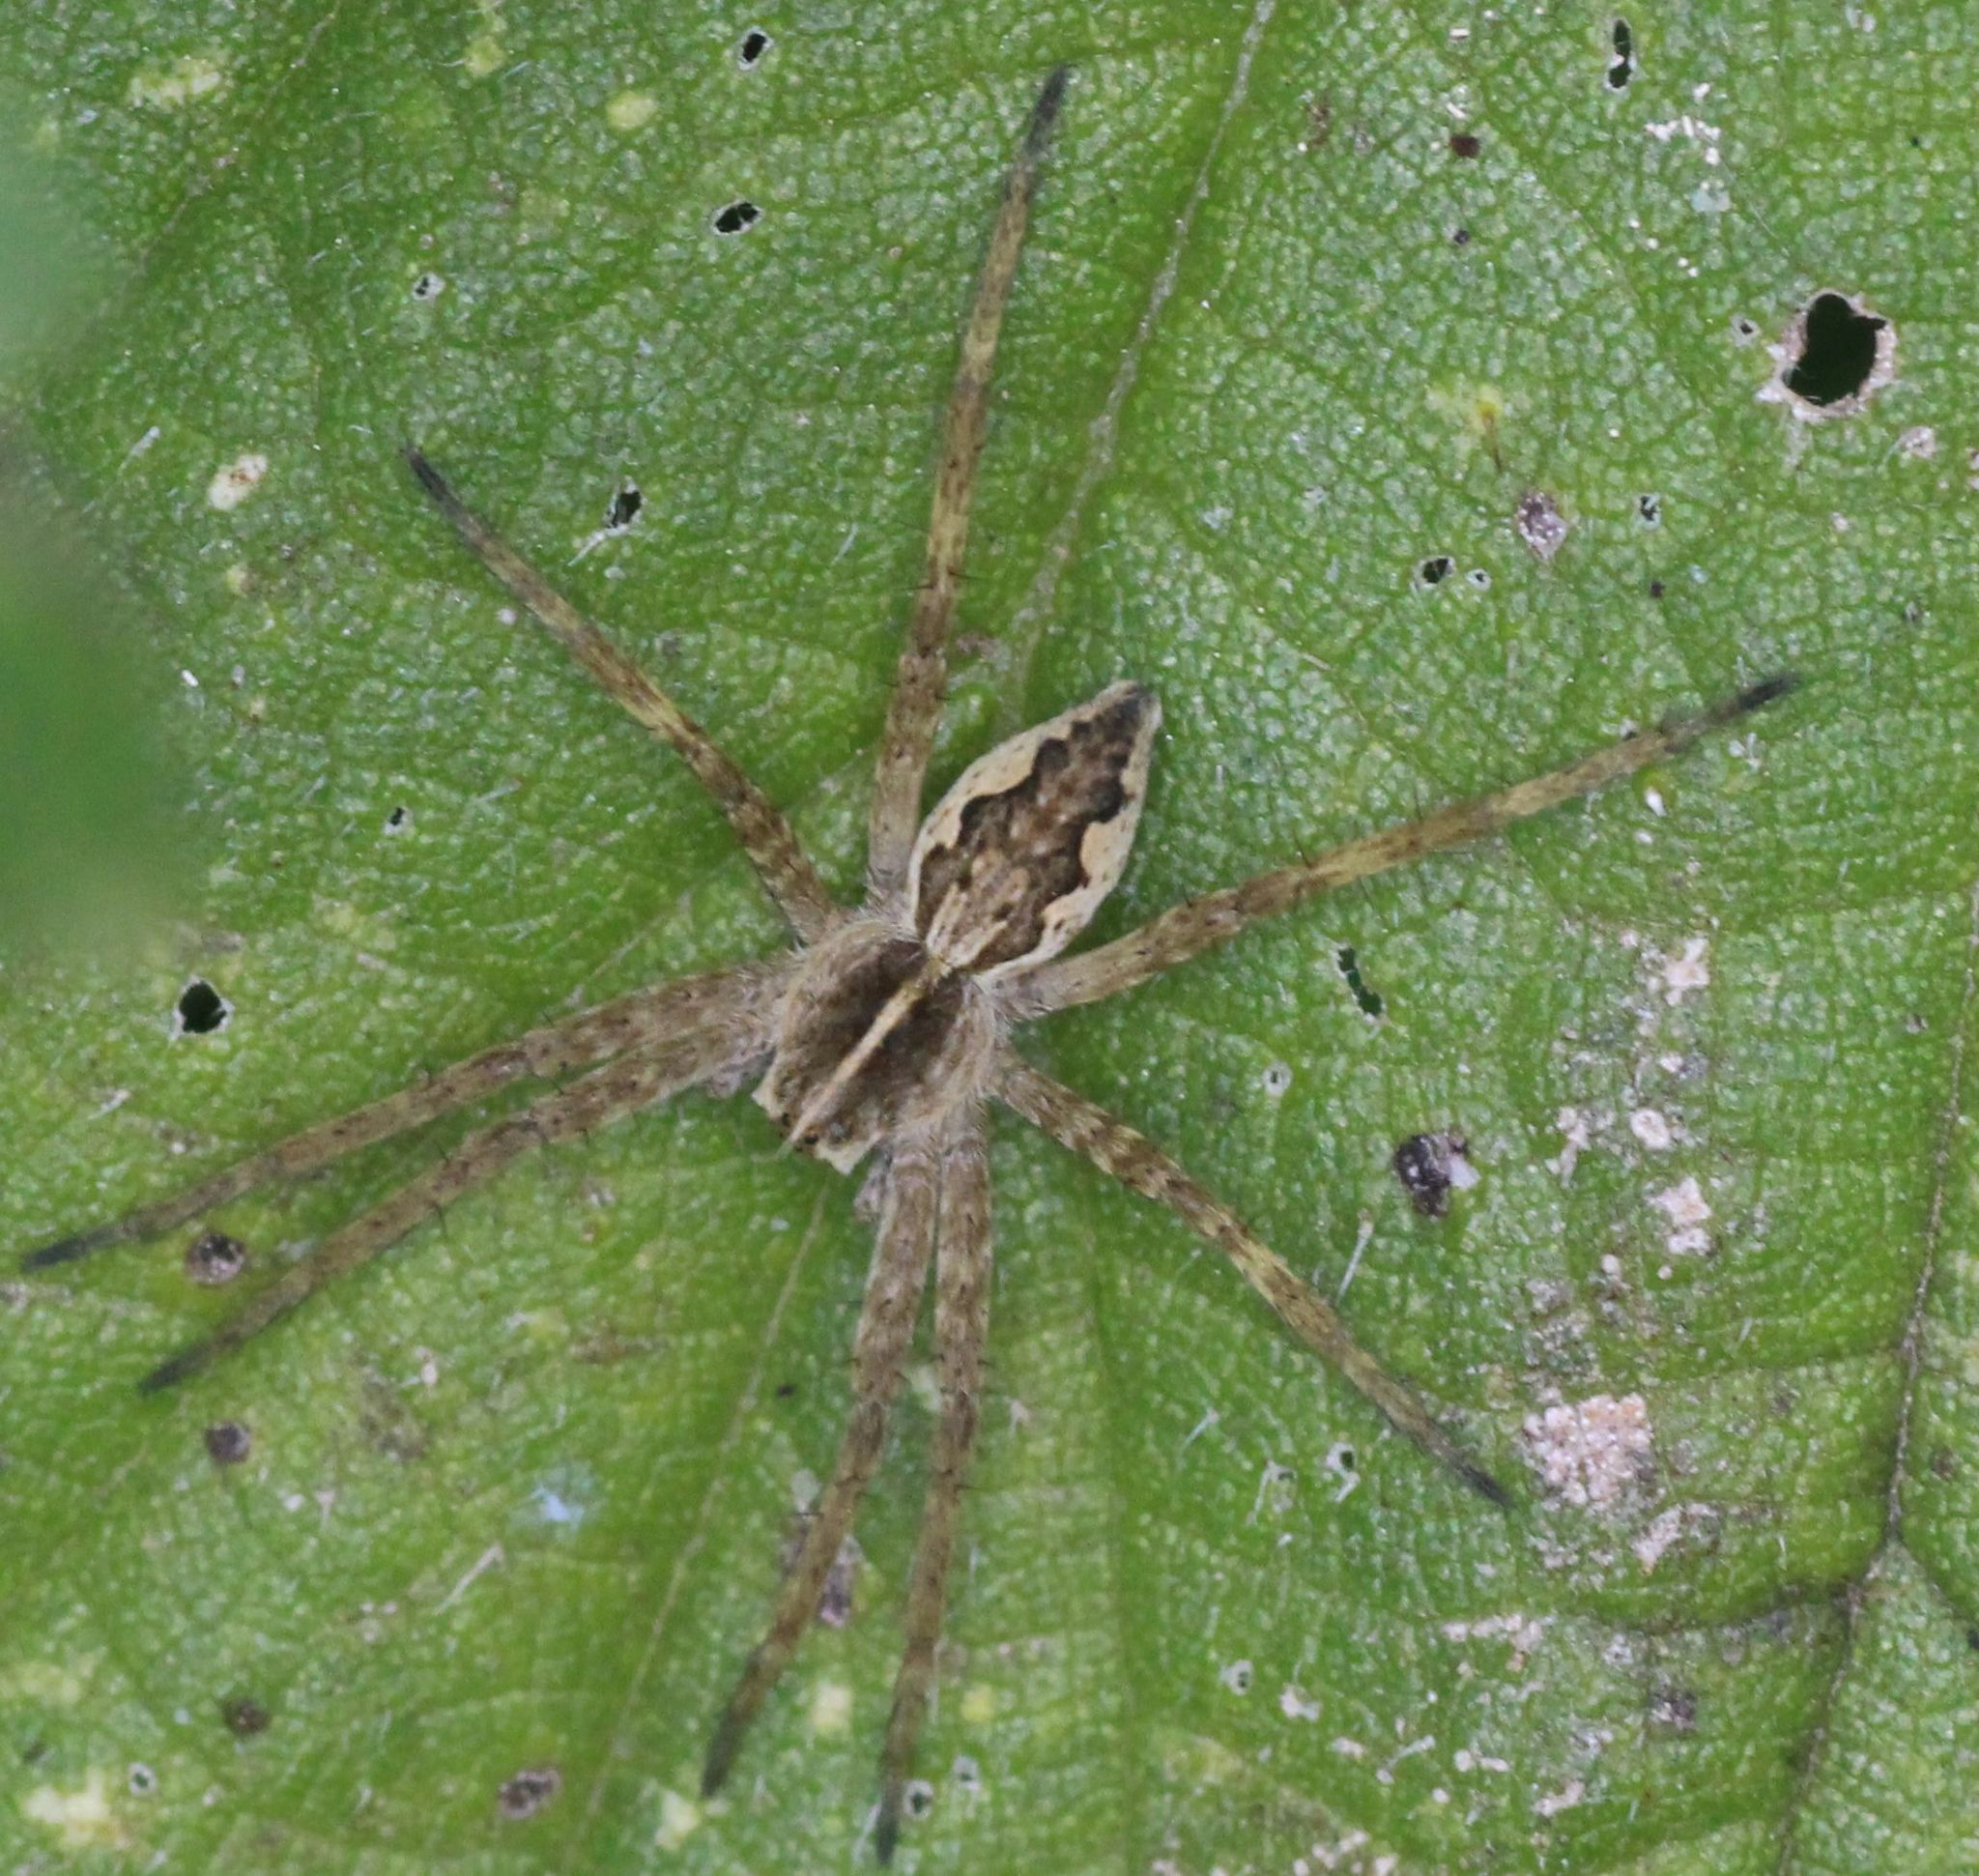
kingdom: Animalia
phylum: Arthropoda
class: Arachnida
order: Araneae
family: Pisauridae
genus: Pisaura
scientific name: Pisaura mirabilis
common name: Tent spider
